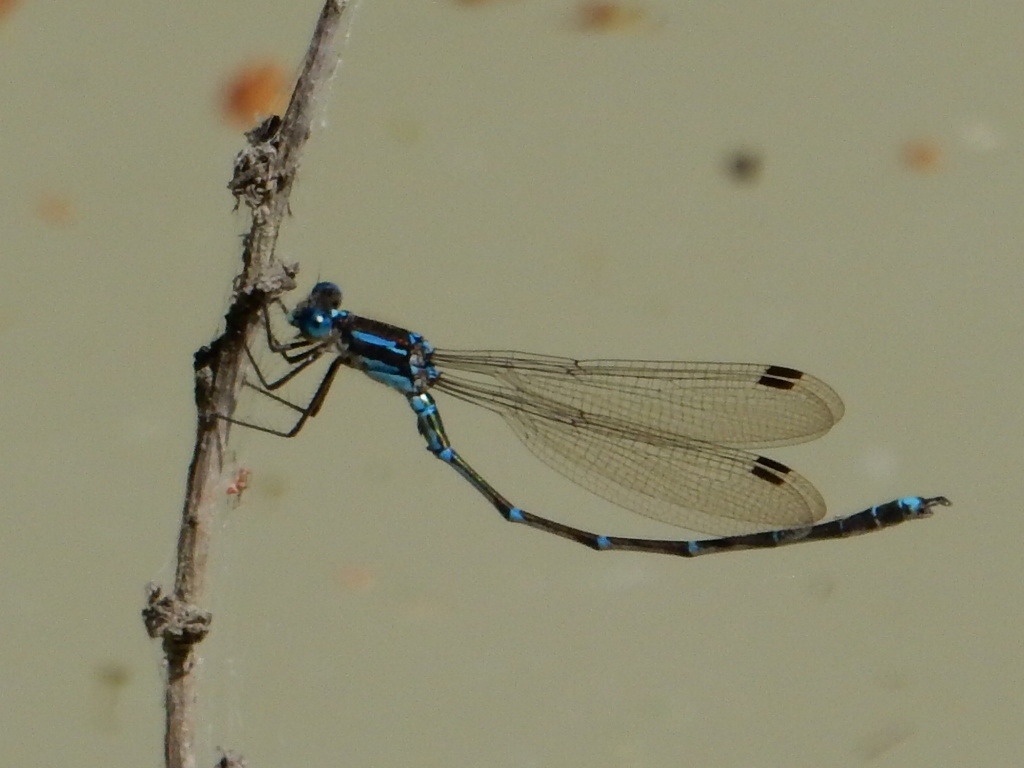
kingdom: Animalia
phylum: Arthropoda
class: Insecta
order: Odonata
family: Lestidae
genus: Austrolestes
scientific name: Austrolestes colensonis
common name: Blue damselfly
